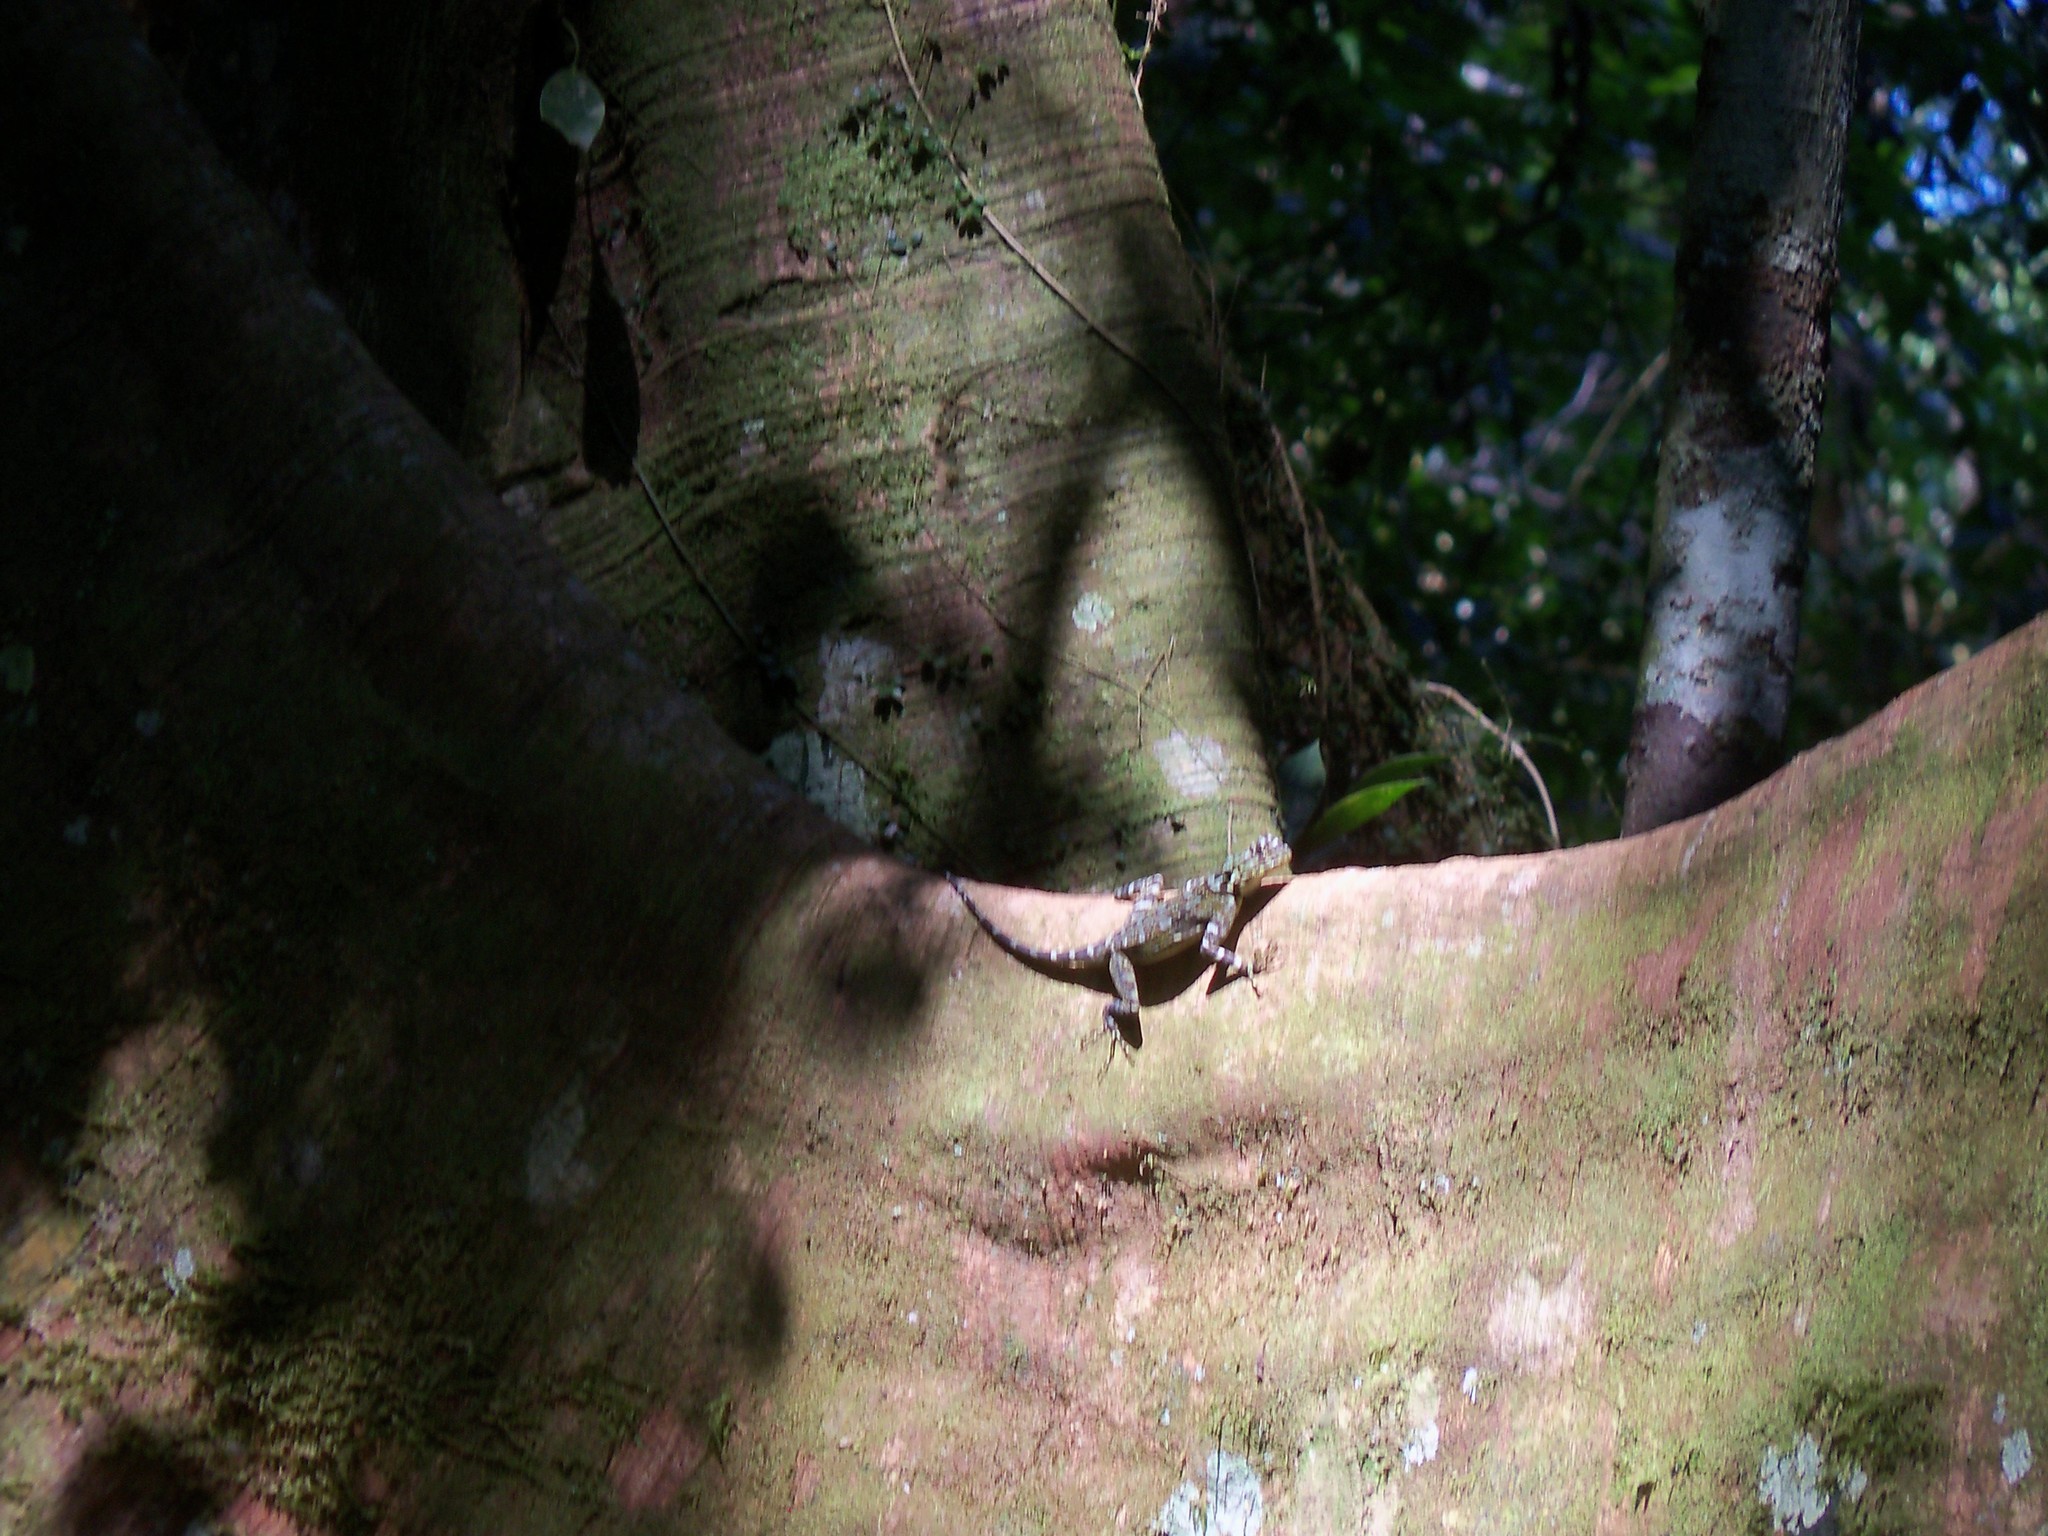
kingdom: Animalia
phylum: Chordata
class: Squamata
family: Tropiduridae
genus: Plica
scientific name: Plica plica
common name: Tree runner
